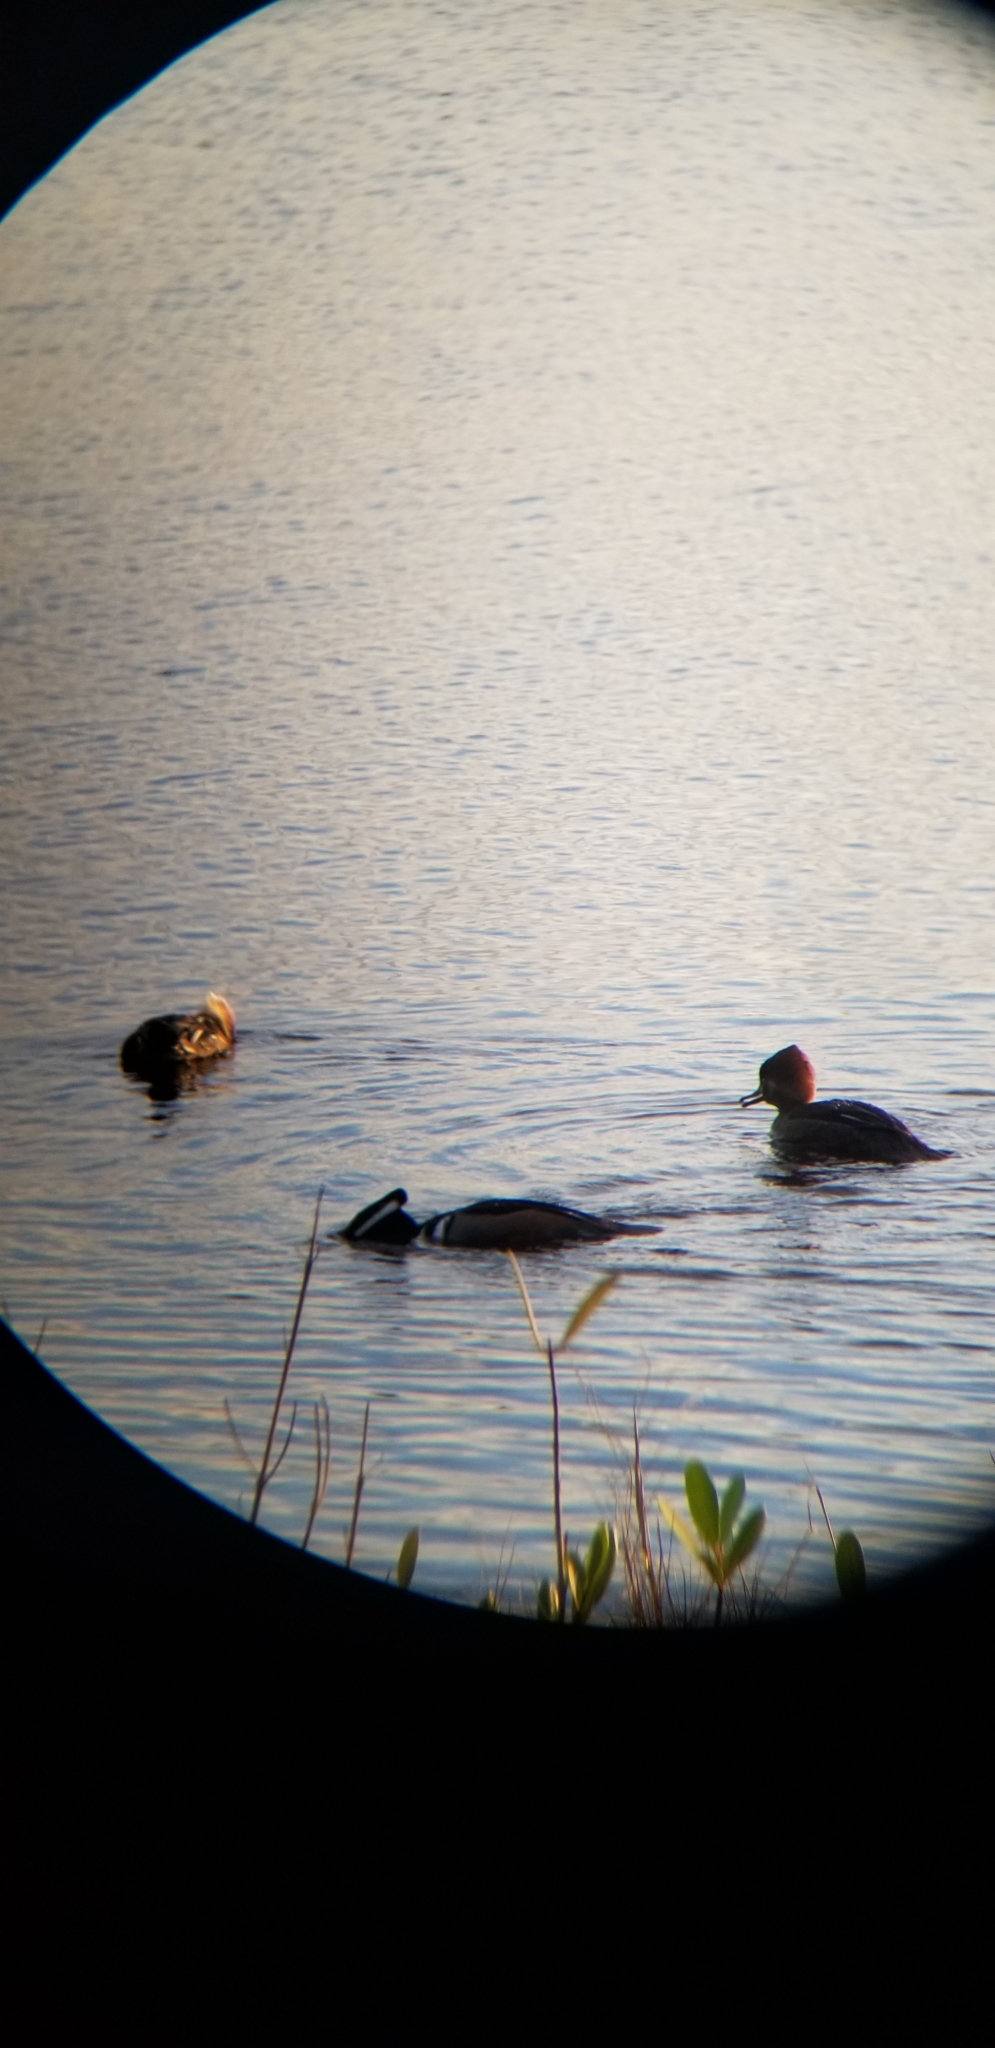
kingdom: Animalia
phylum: Chordata
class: Aves
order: Anseriformes
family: Anatidae
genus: Lophodytes
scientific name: Lophodytes cucullatus
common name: Hooded merganser
